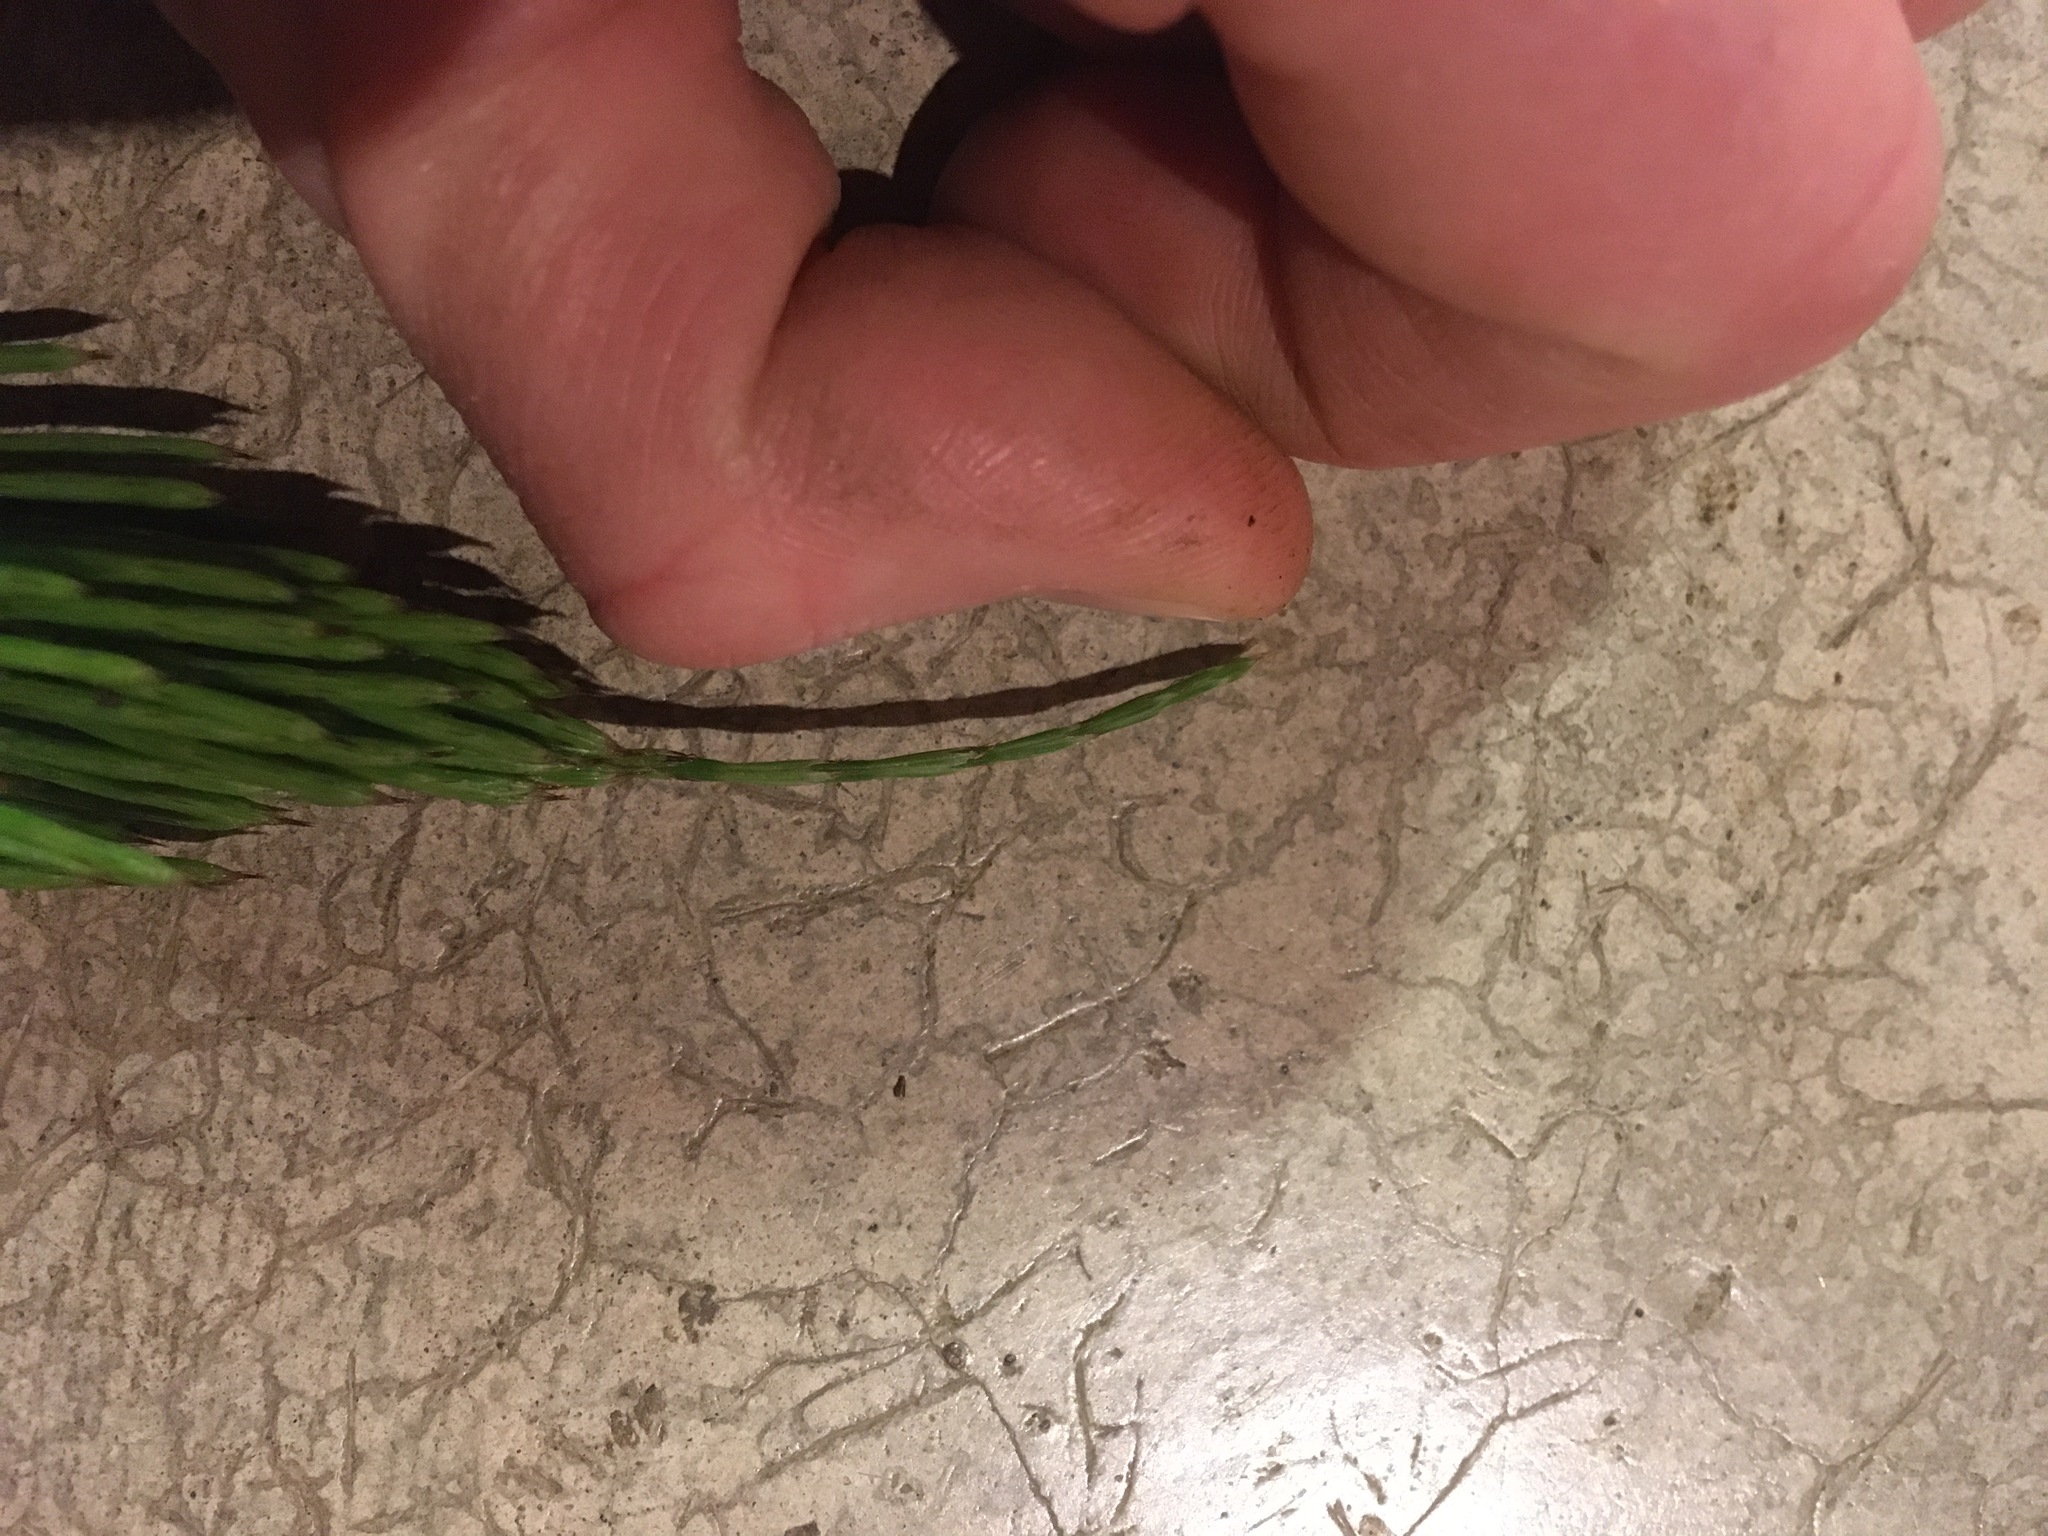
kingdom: Plantae
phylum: Tracheophyta
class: Polypodiopsida
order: Equisetales
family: Equisetaceae
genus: Equisetum
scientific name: Equisetum telmateia
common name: Great horsetail
